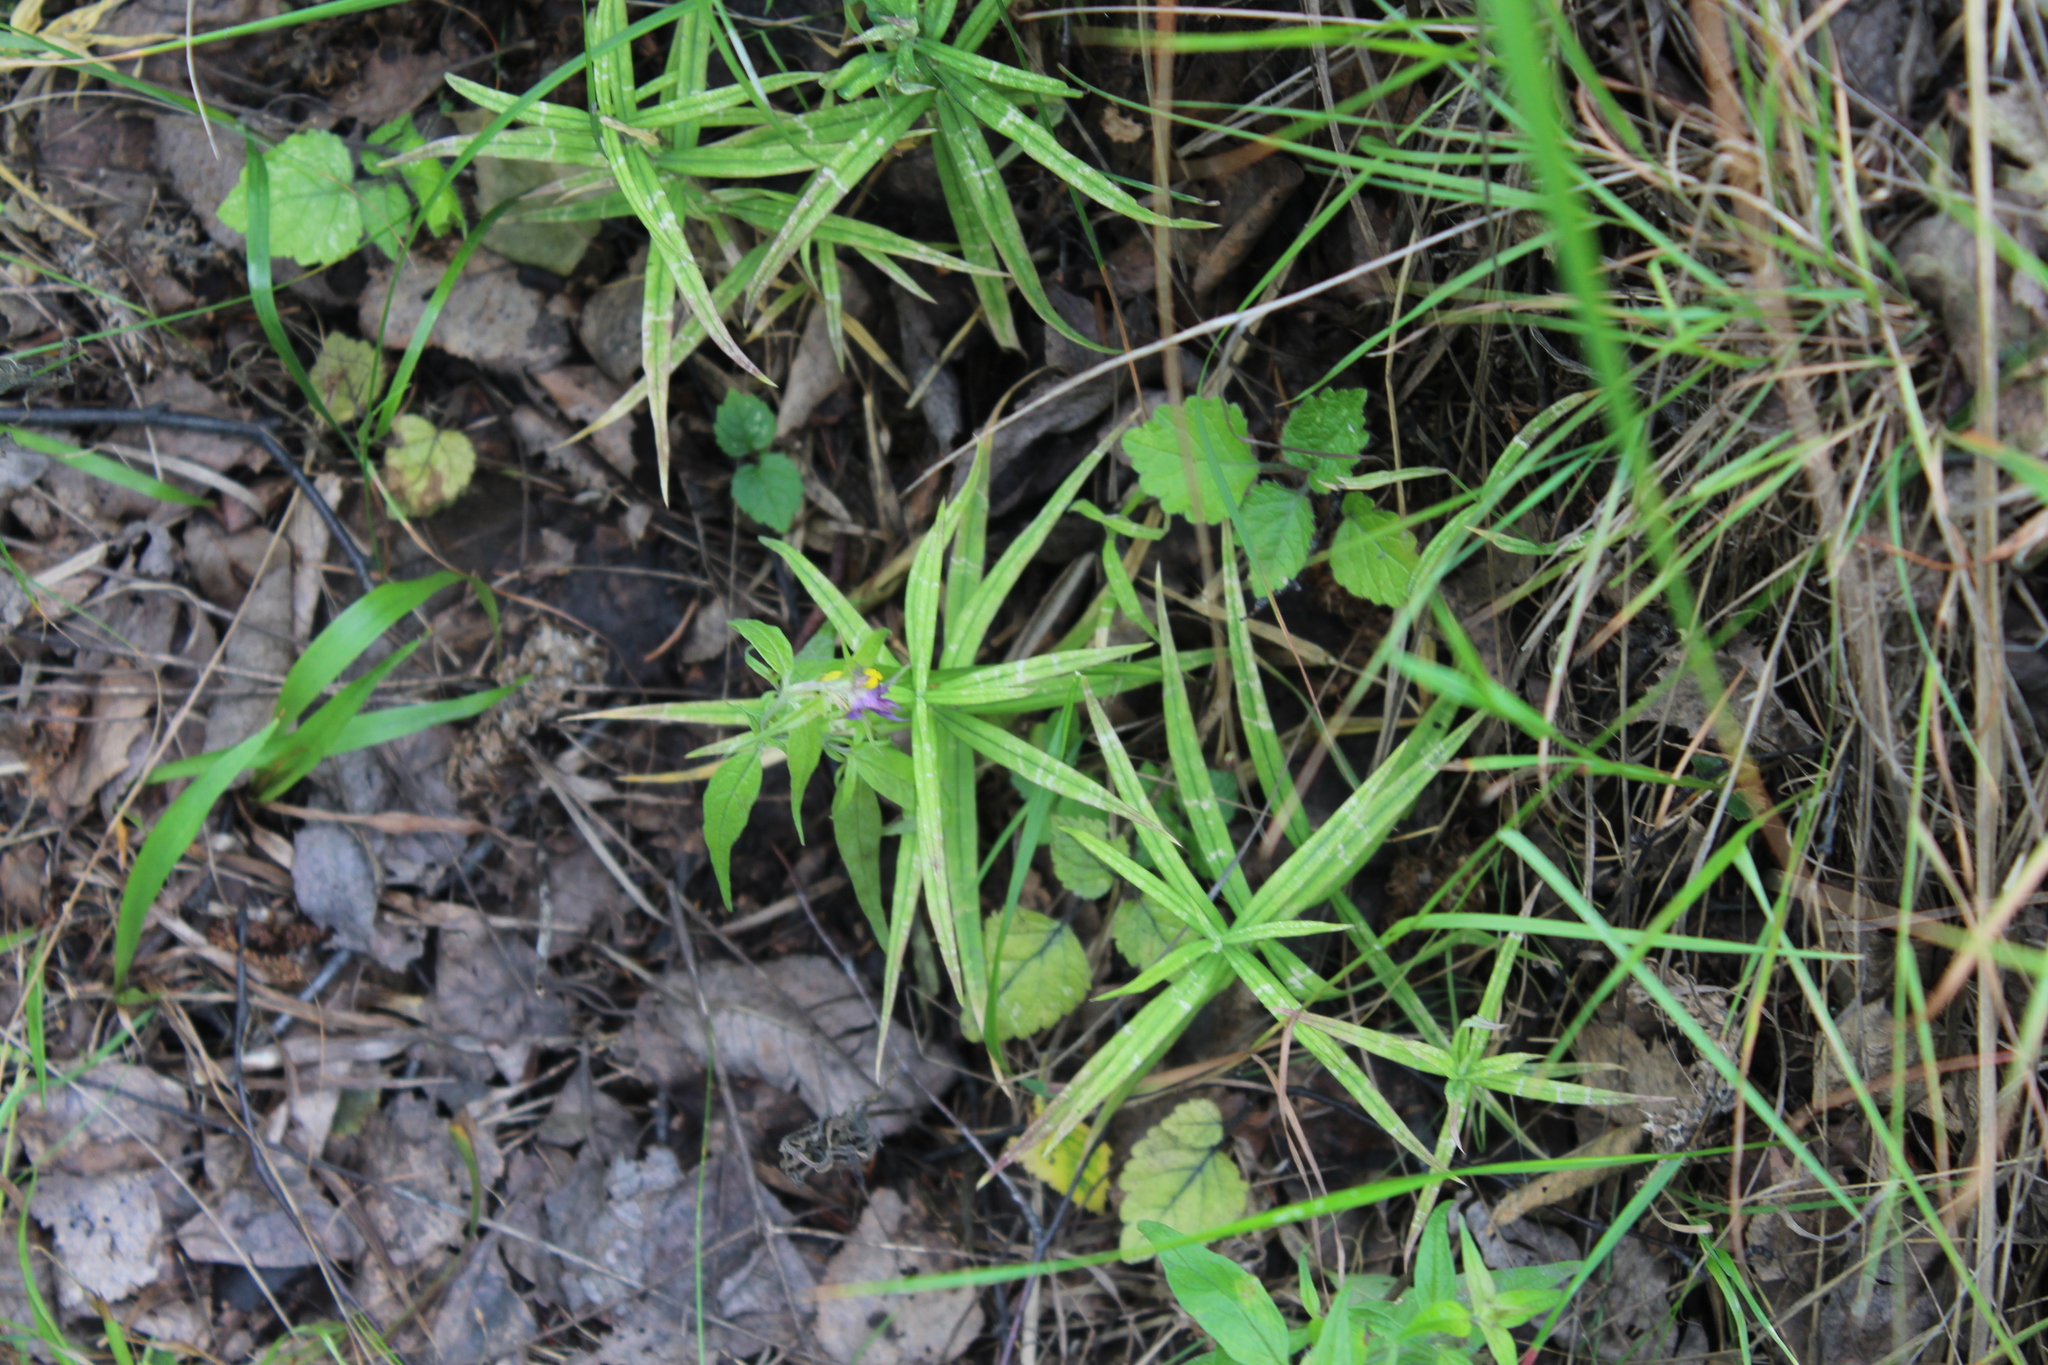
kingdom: Plantae
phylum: Tracheophyta
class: Magnoliopsida
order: Caryophyllales
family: Caryophyllaceae
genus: Rabelera
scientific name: Rabelera holostea
